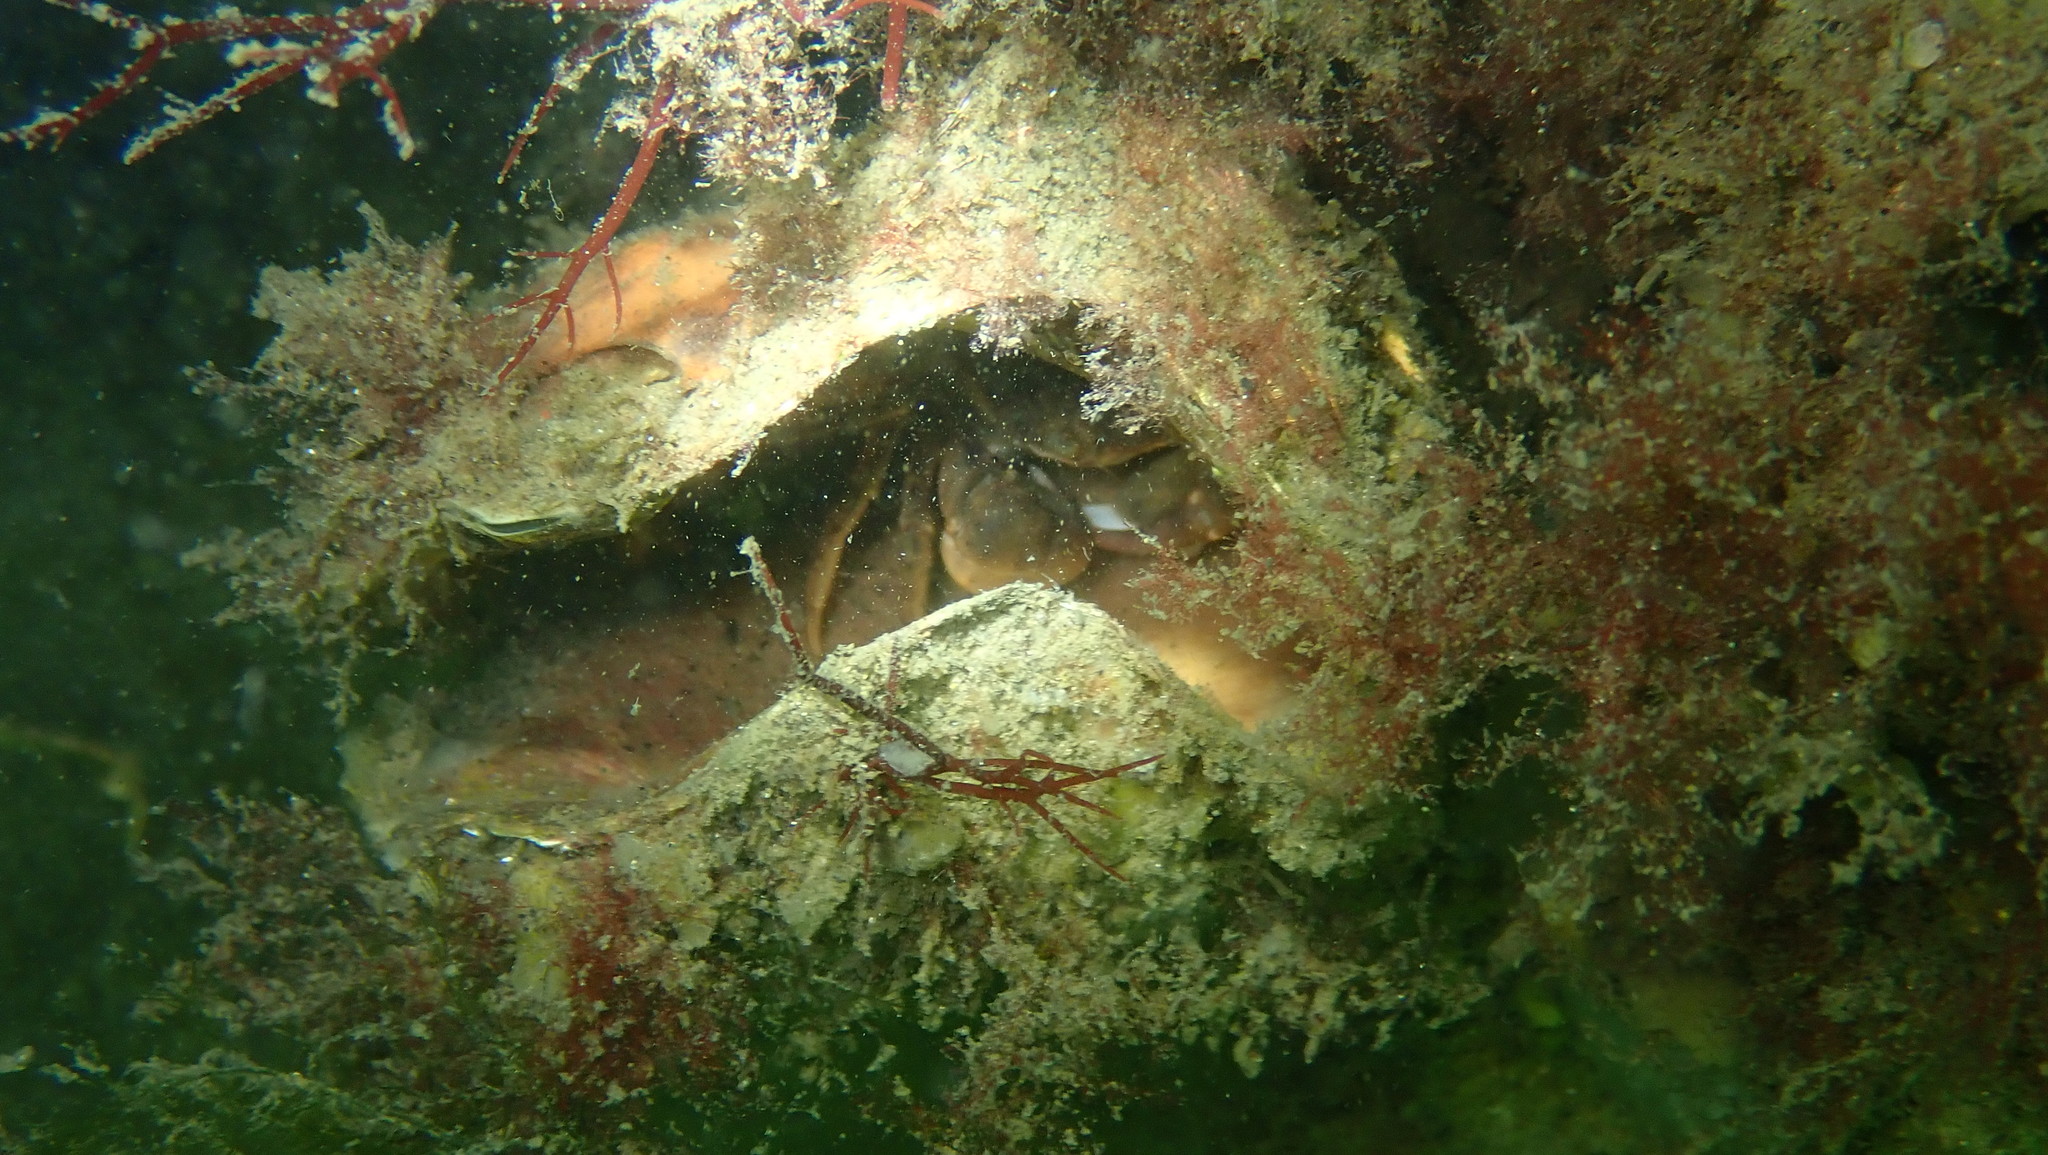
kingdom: Animalia
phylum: Arthropoda
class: Malacostraca
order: Decapoda
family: Cancridae
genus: Cancer
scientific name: Cancer pagurus
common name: Edible crab
